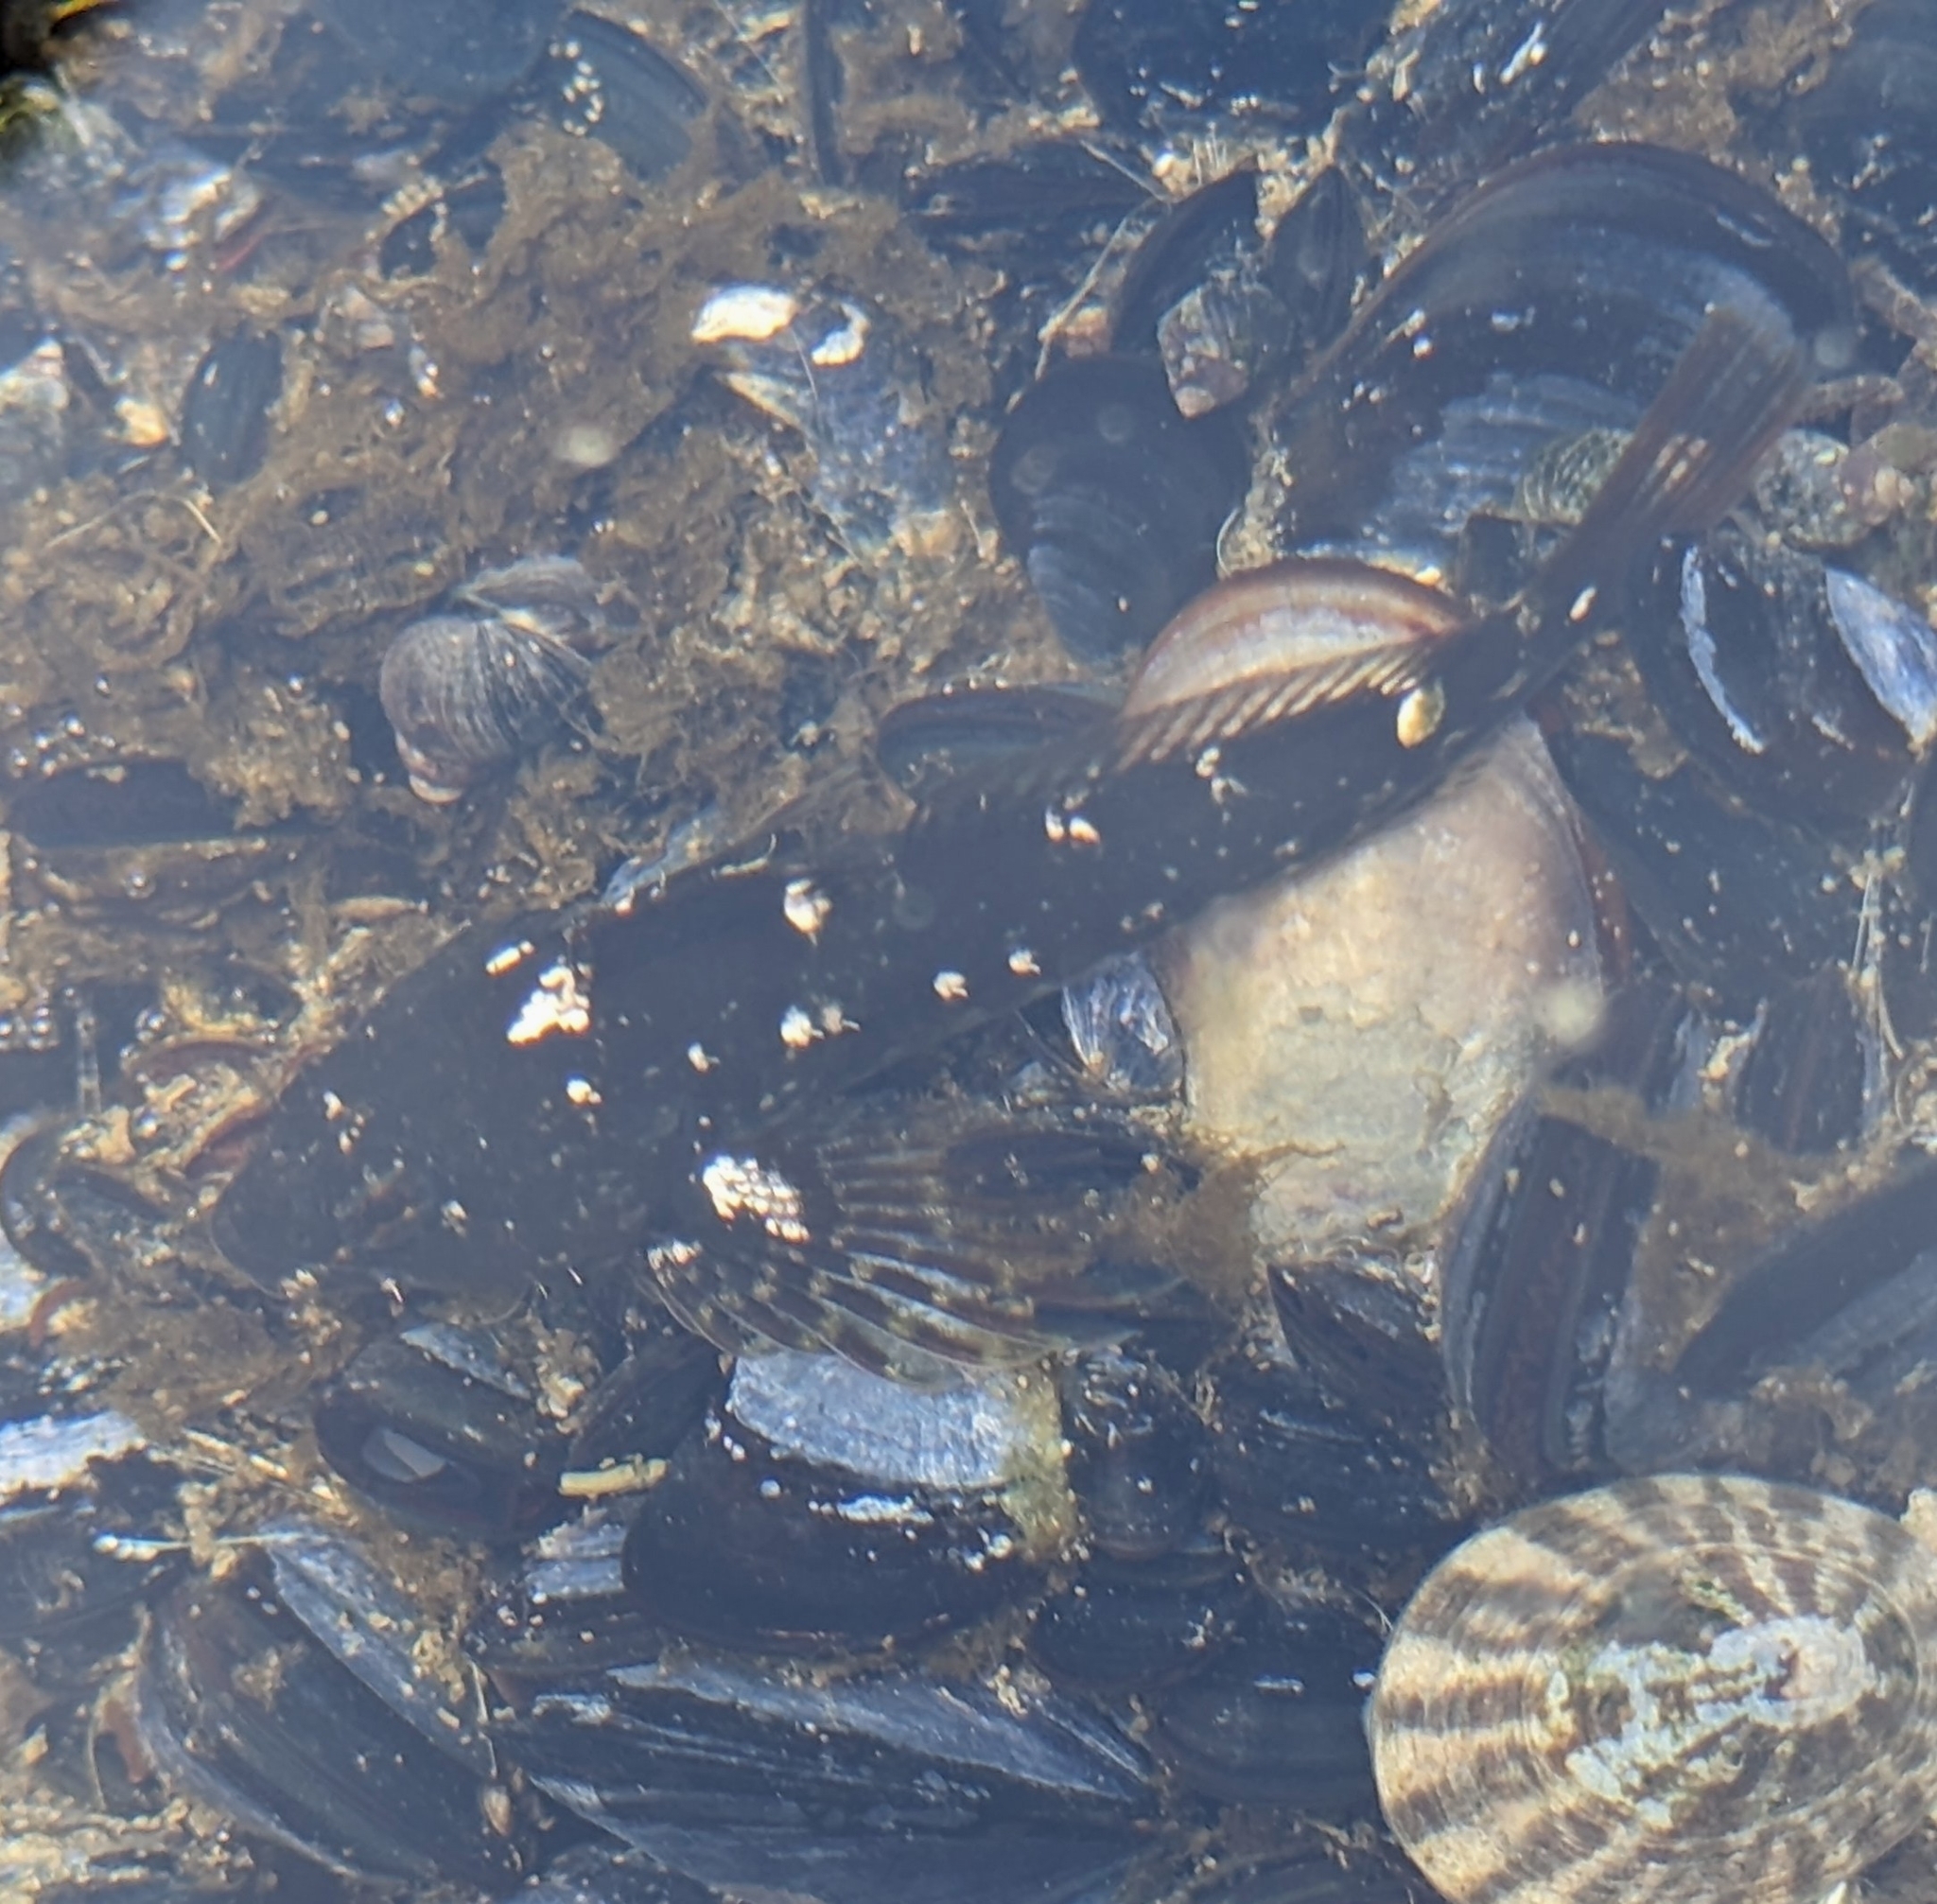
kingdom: Animalia
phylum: Chordata
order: Scorpaeniformes
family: Cottidae
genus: Oligocottus
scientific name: Oligocottus maculosus
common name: Tidepool sculpin
